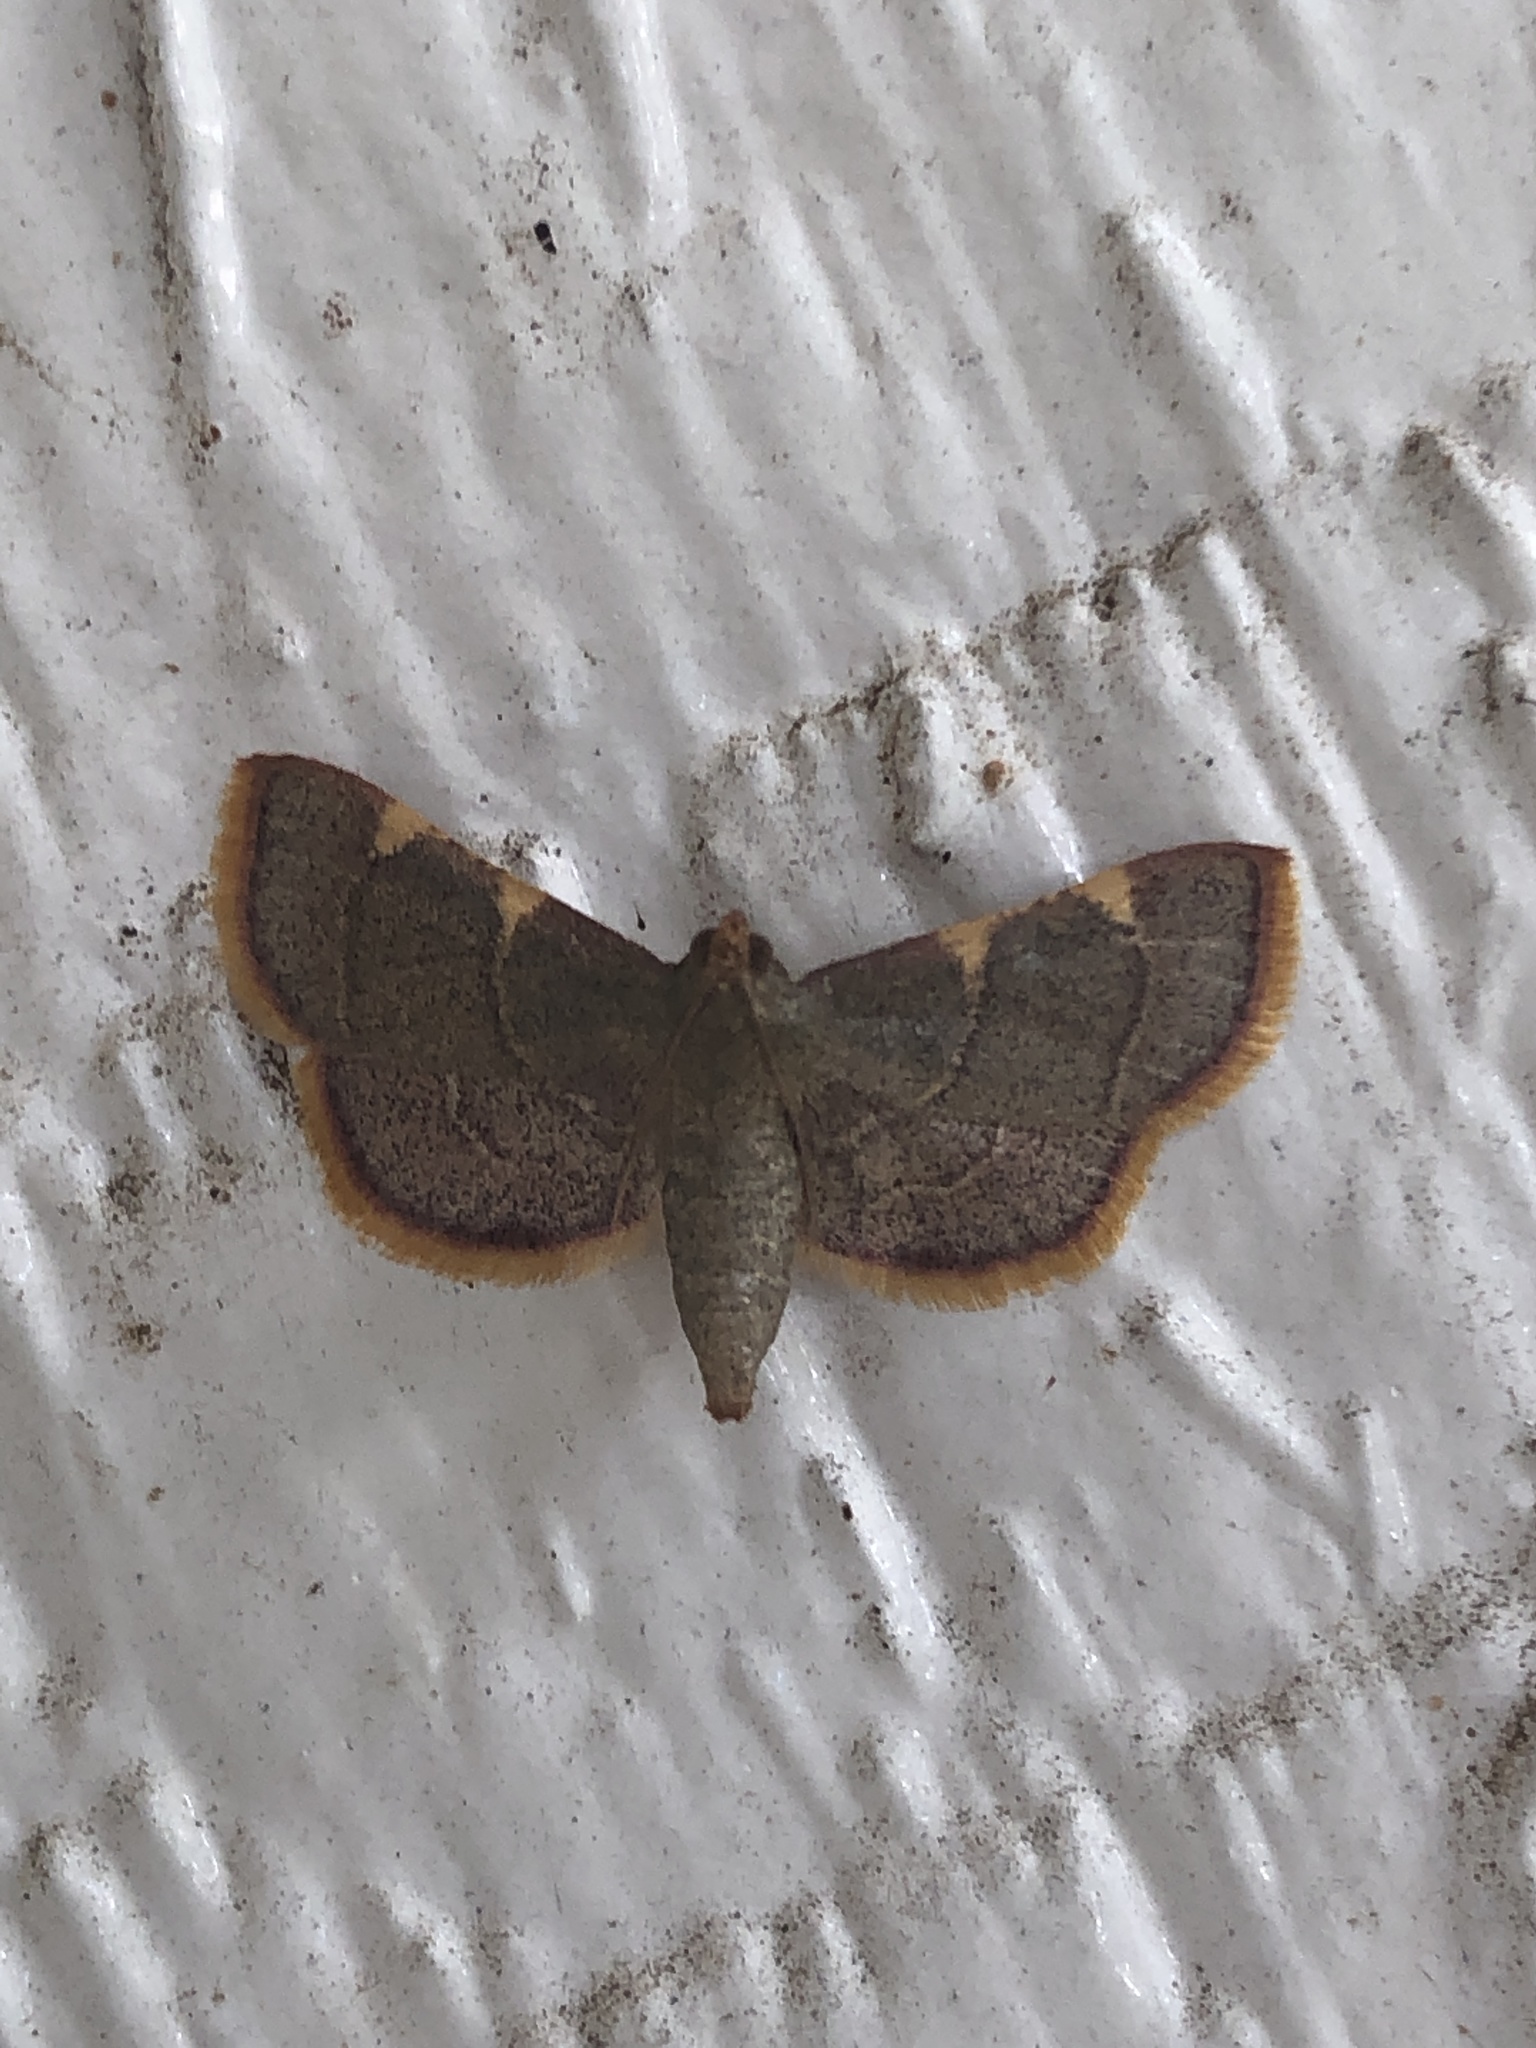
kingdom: Animalia
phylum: Arthropoda
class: Insecta
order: Lepidoptera
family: Pyralidae
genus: Hypsopygia
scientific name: Hypsopygia olinalis
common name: Yellow-fringed dolichomia moth
